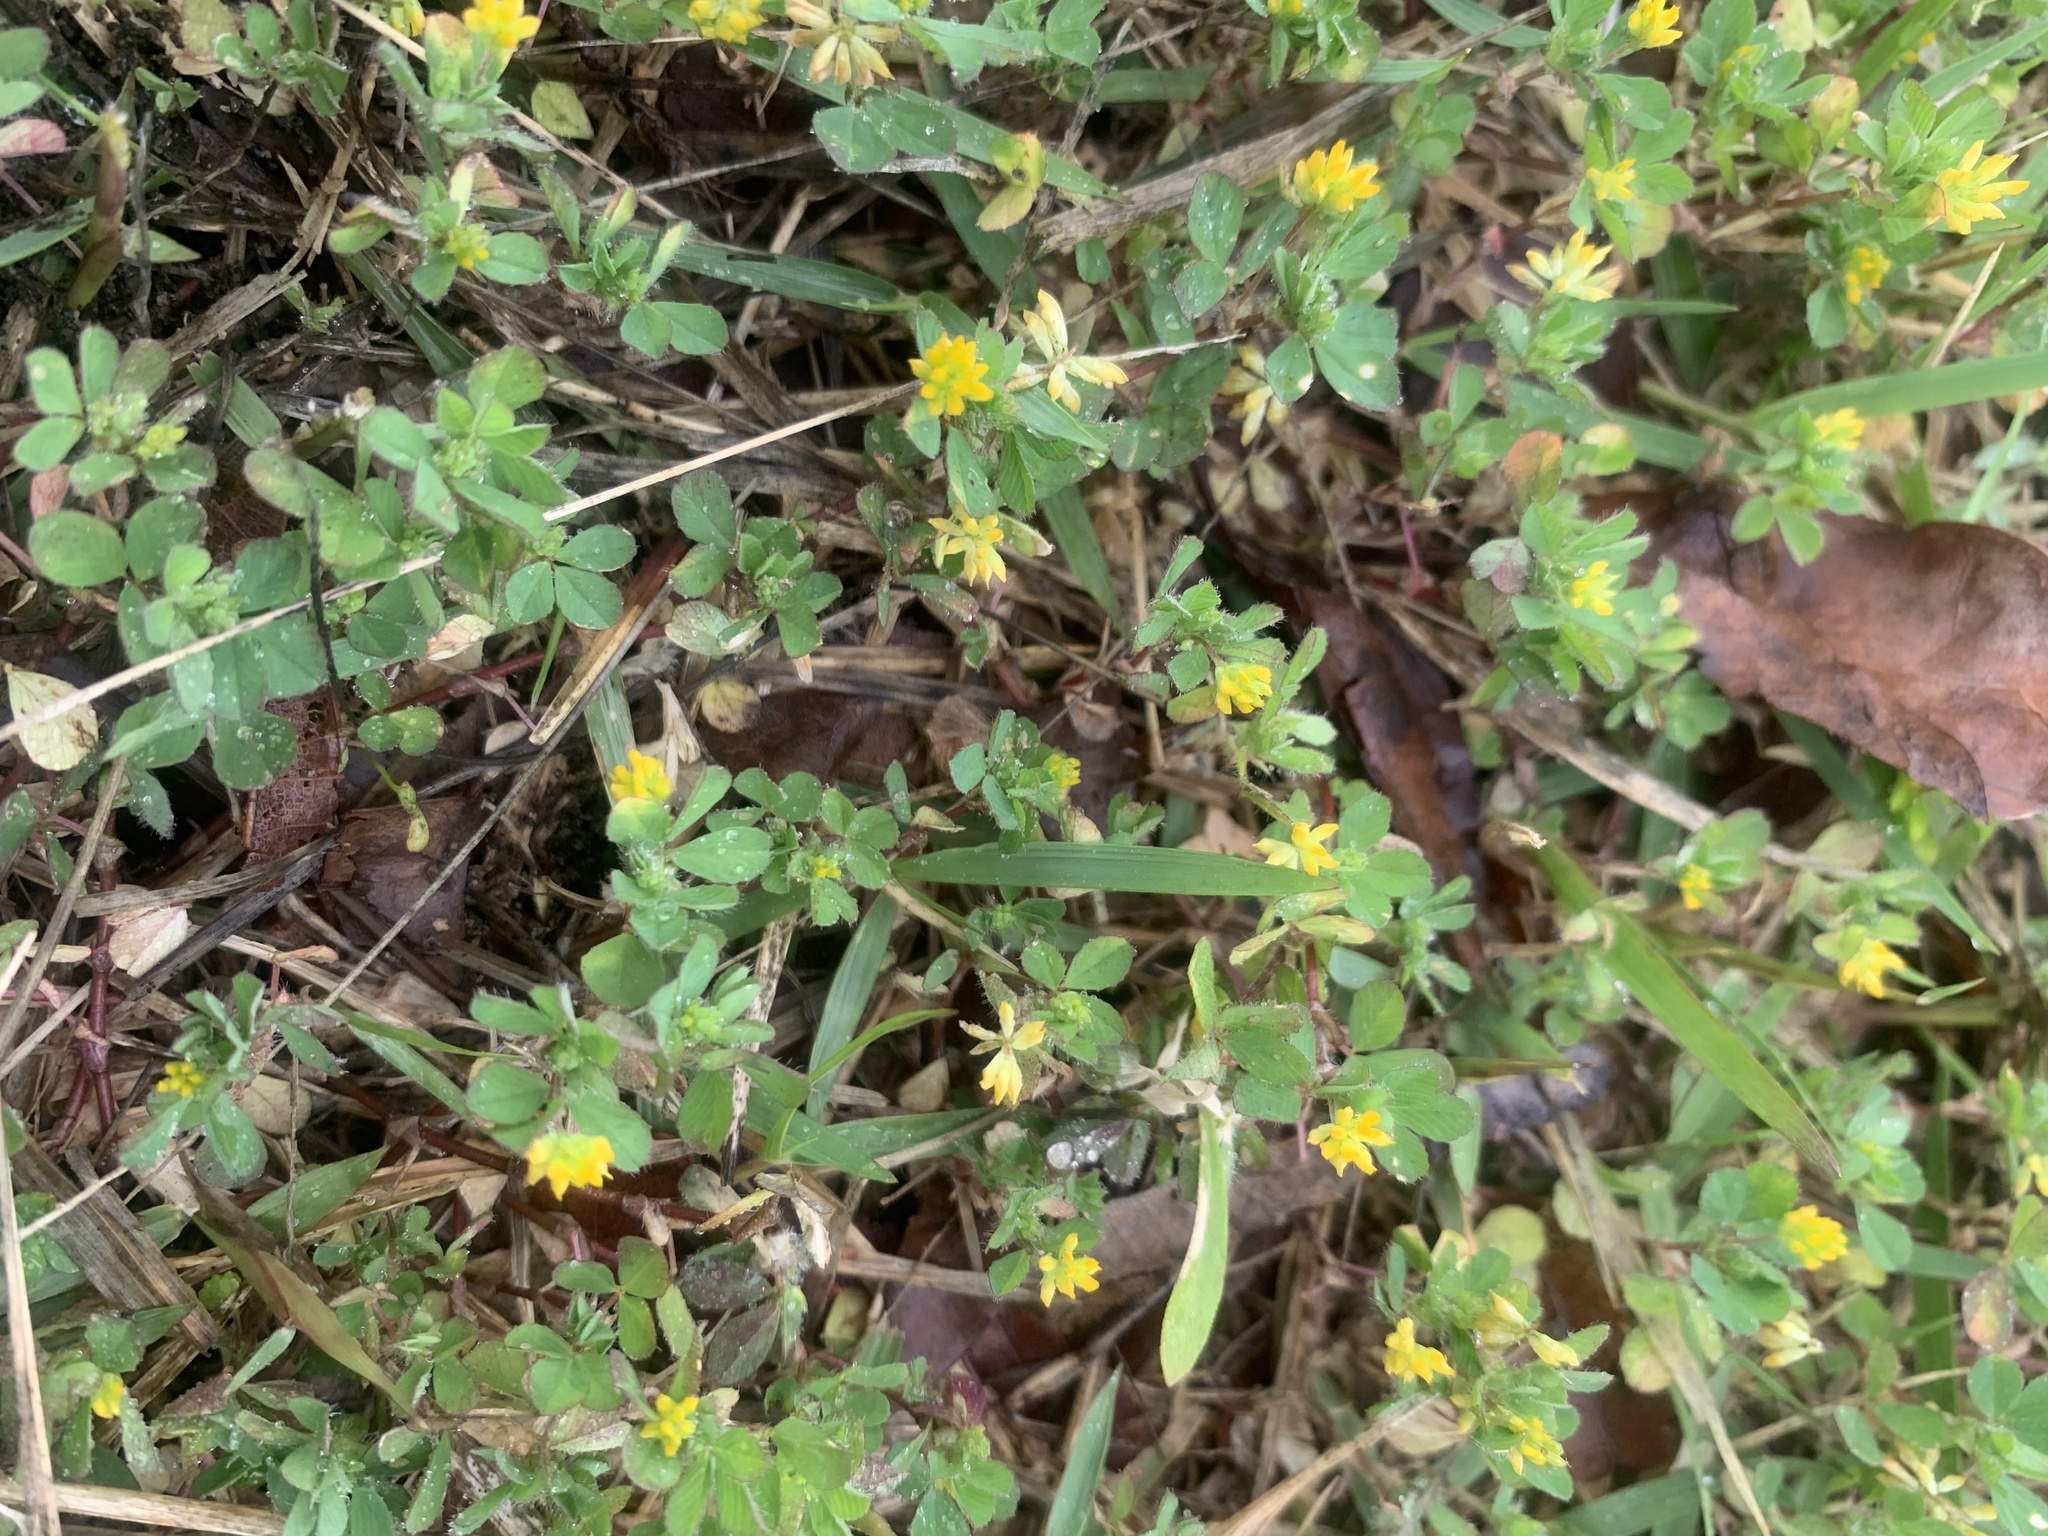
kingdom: Plantae
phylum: Tracheophyta
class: Magnoliopsida
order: Fabales
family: Fabaceae
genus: Trifolium
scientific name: Trifolium dubium
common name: Suckling clover
